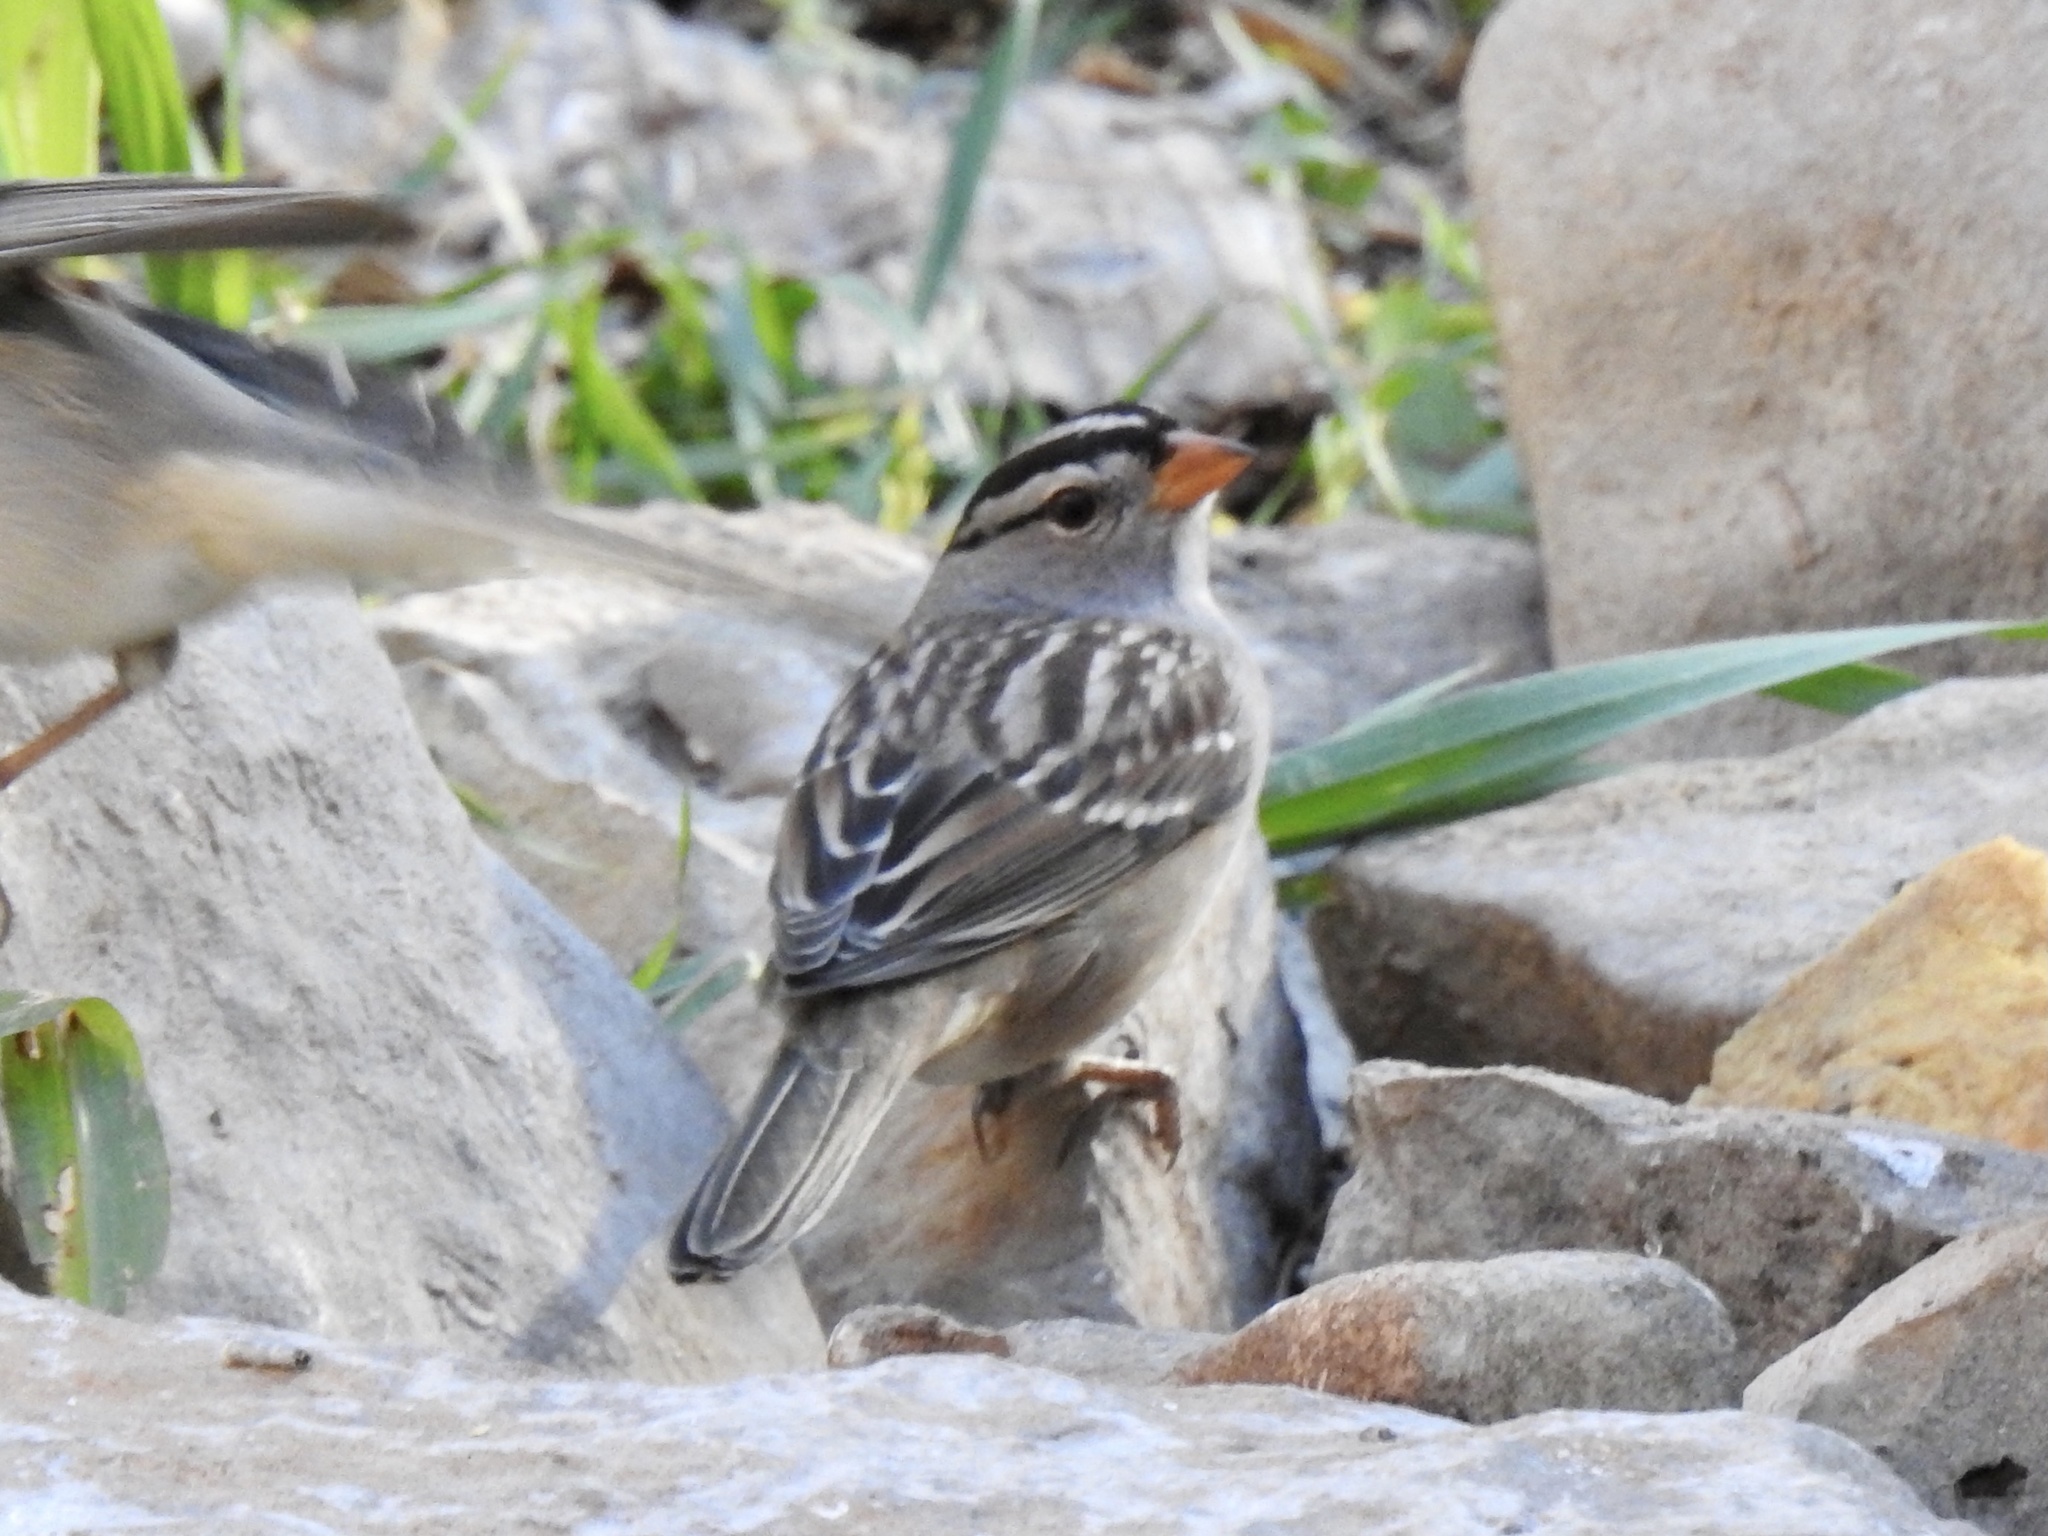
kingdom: Animalia
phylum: Chordata
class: Aves
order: Passeriformes
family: Passerellidae
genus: Zonotrichia
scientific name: Zonotrichia leucophrys
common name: White-crowned sparrow
